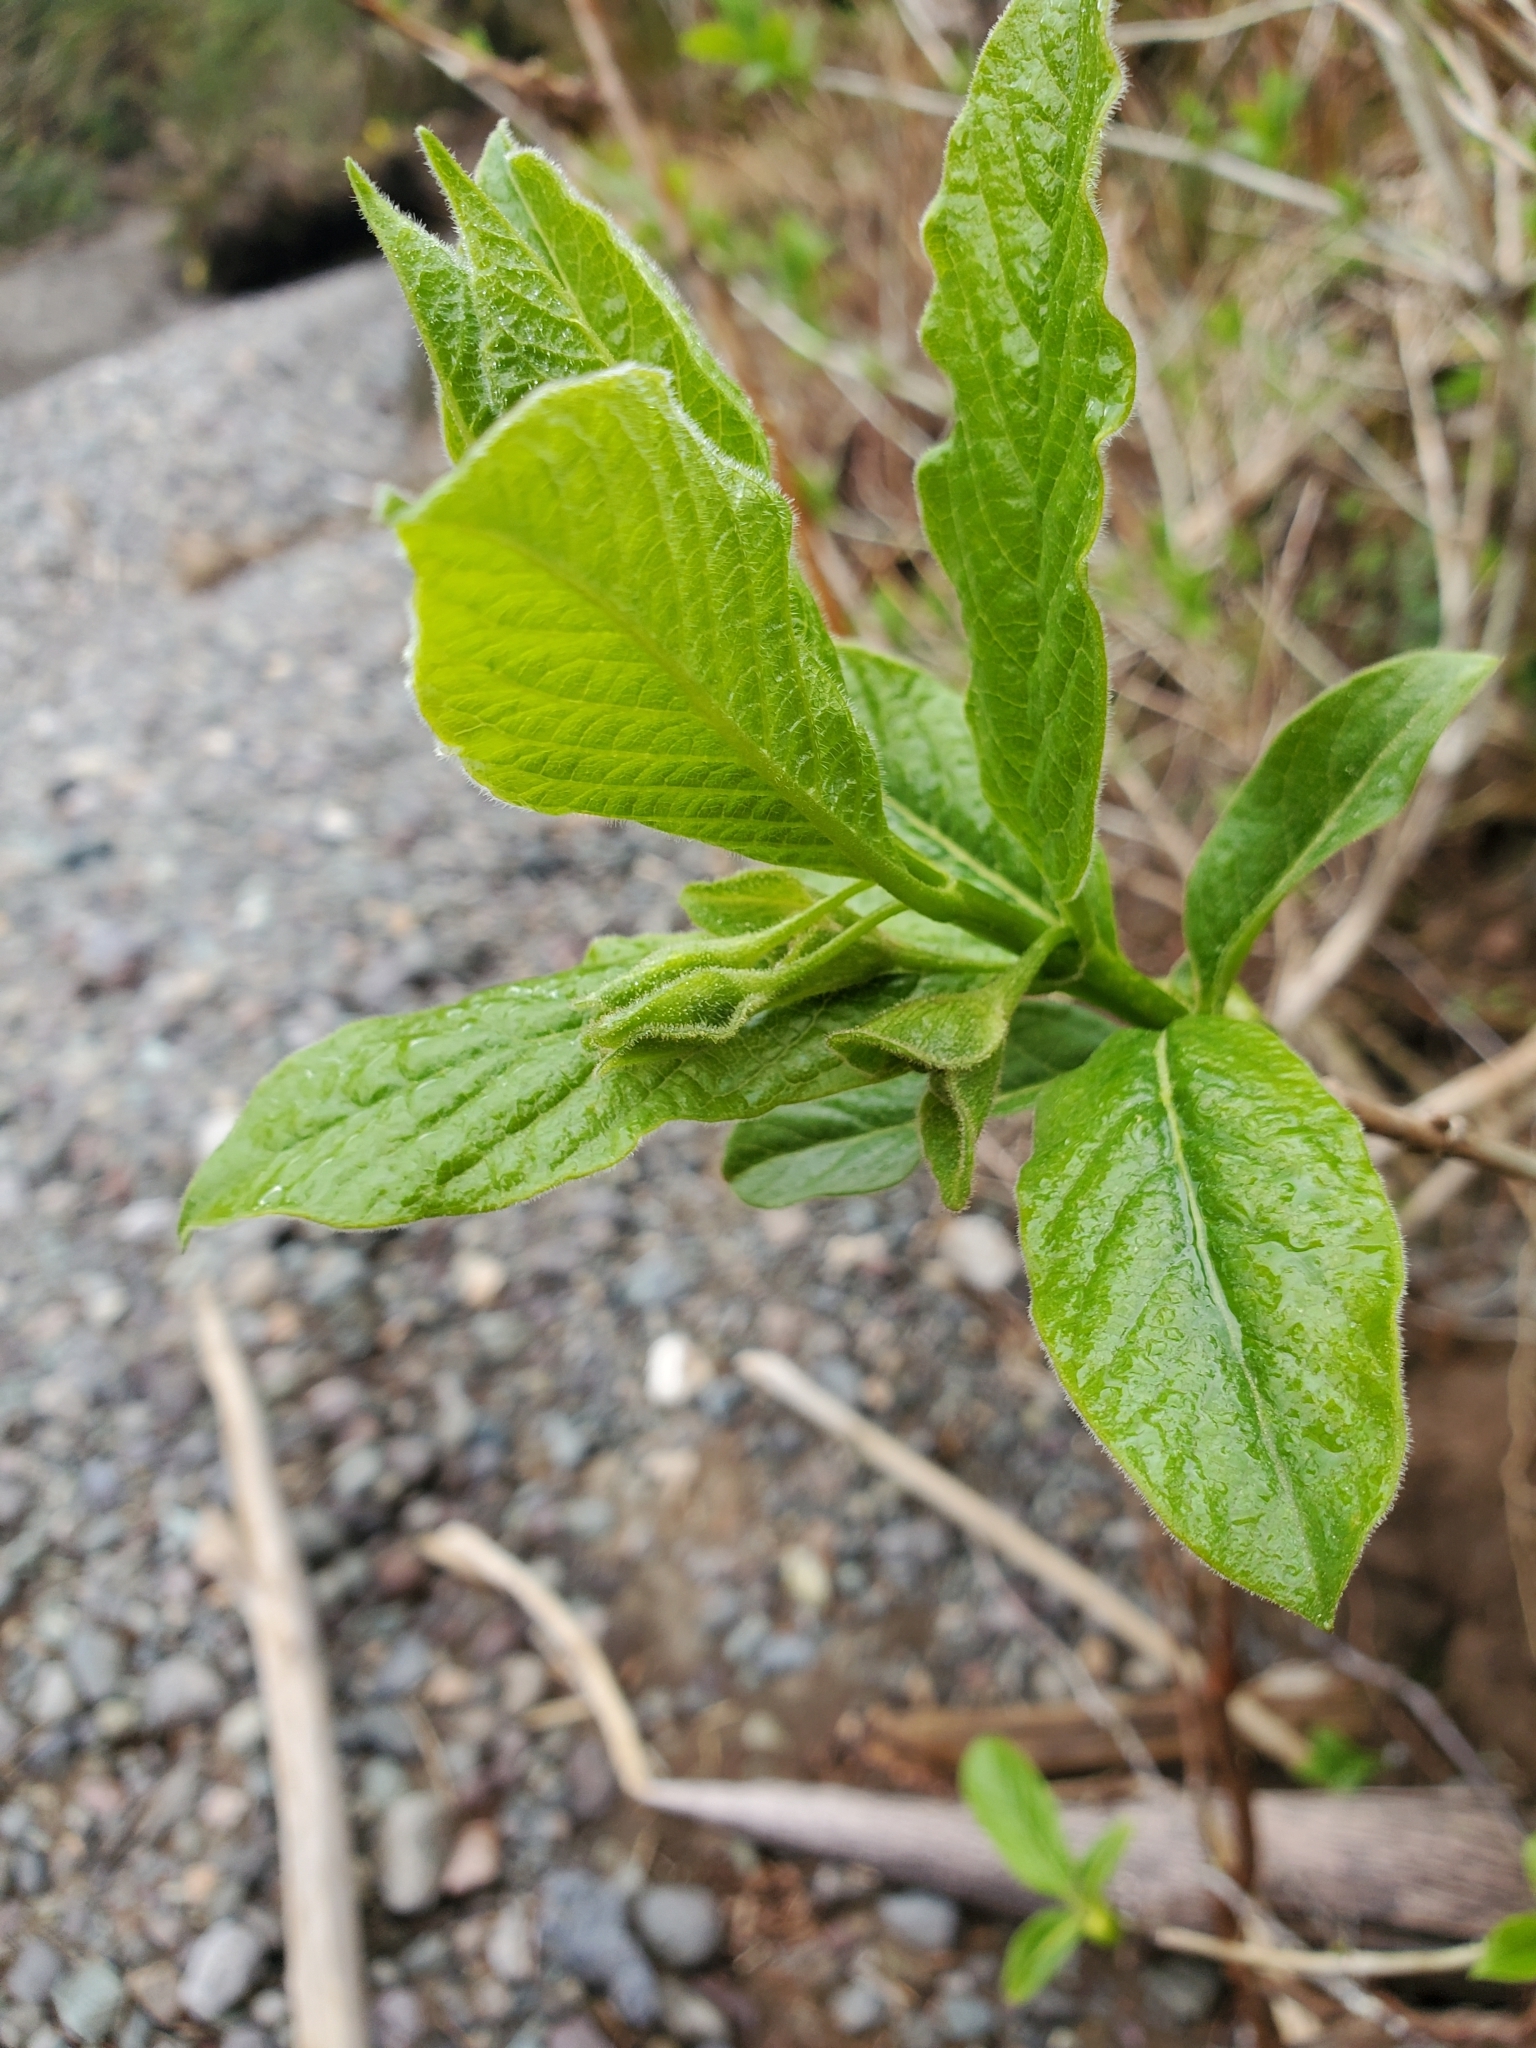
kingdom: Plantae
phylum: Tracheophyta
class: Magnoliopsida
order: Dipsacales
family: Caprifoliaceae
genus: Lonicera
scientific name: Lonicera involucrata
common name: Californian honeysuckle
